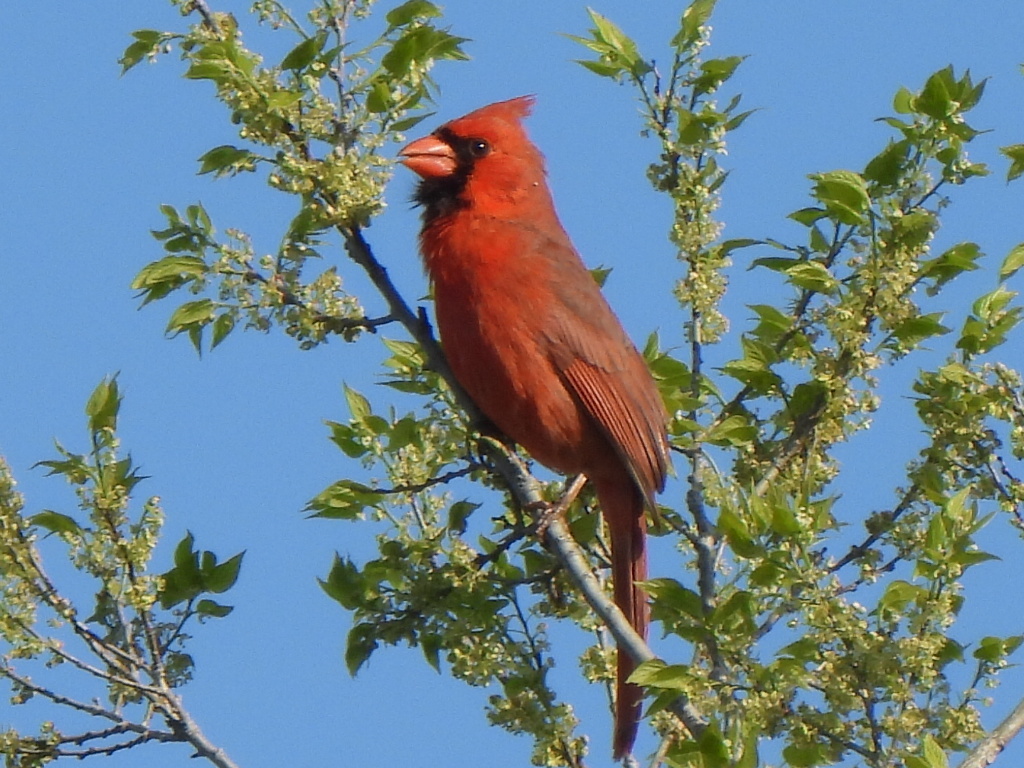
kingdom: Animalia
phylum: Chordata
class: Aves
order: Passeriformes
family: Cardinalidae
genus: Cardinalis
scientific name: Cardinalis cardinalis
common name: Northern cardinal
